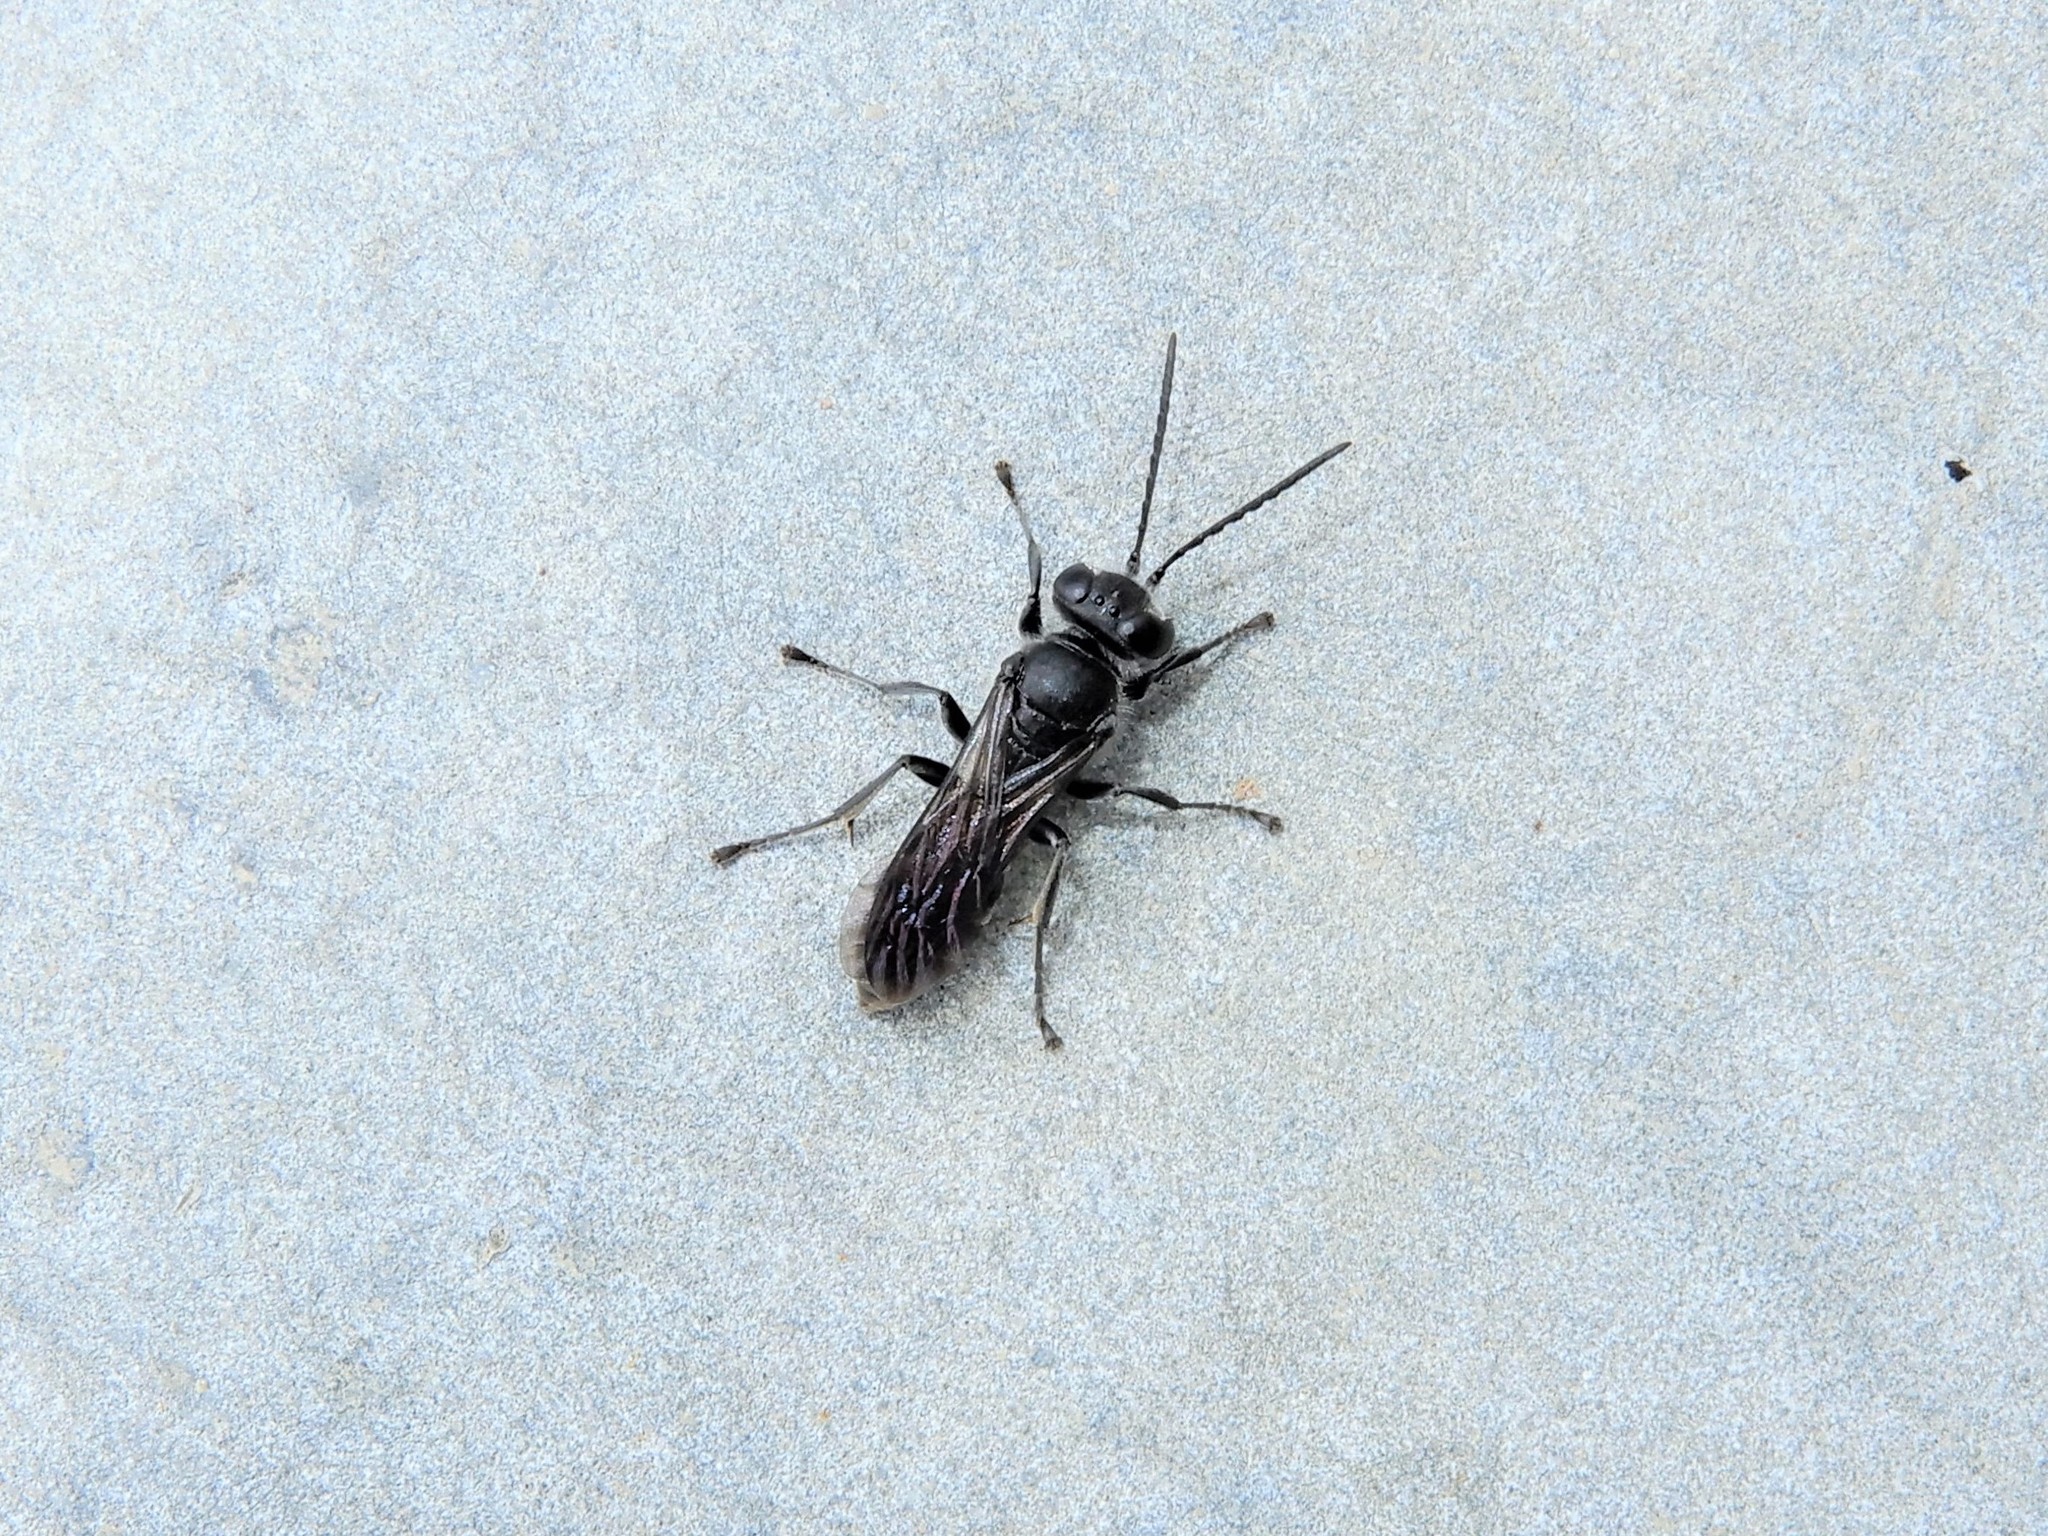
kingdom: Animalia
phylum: Arthropoda
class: Insecta
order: Hymenoptera
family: Crabronidae
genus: Pison
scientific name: Pison spinolae
